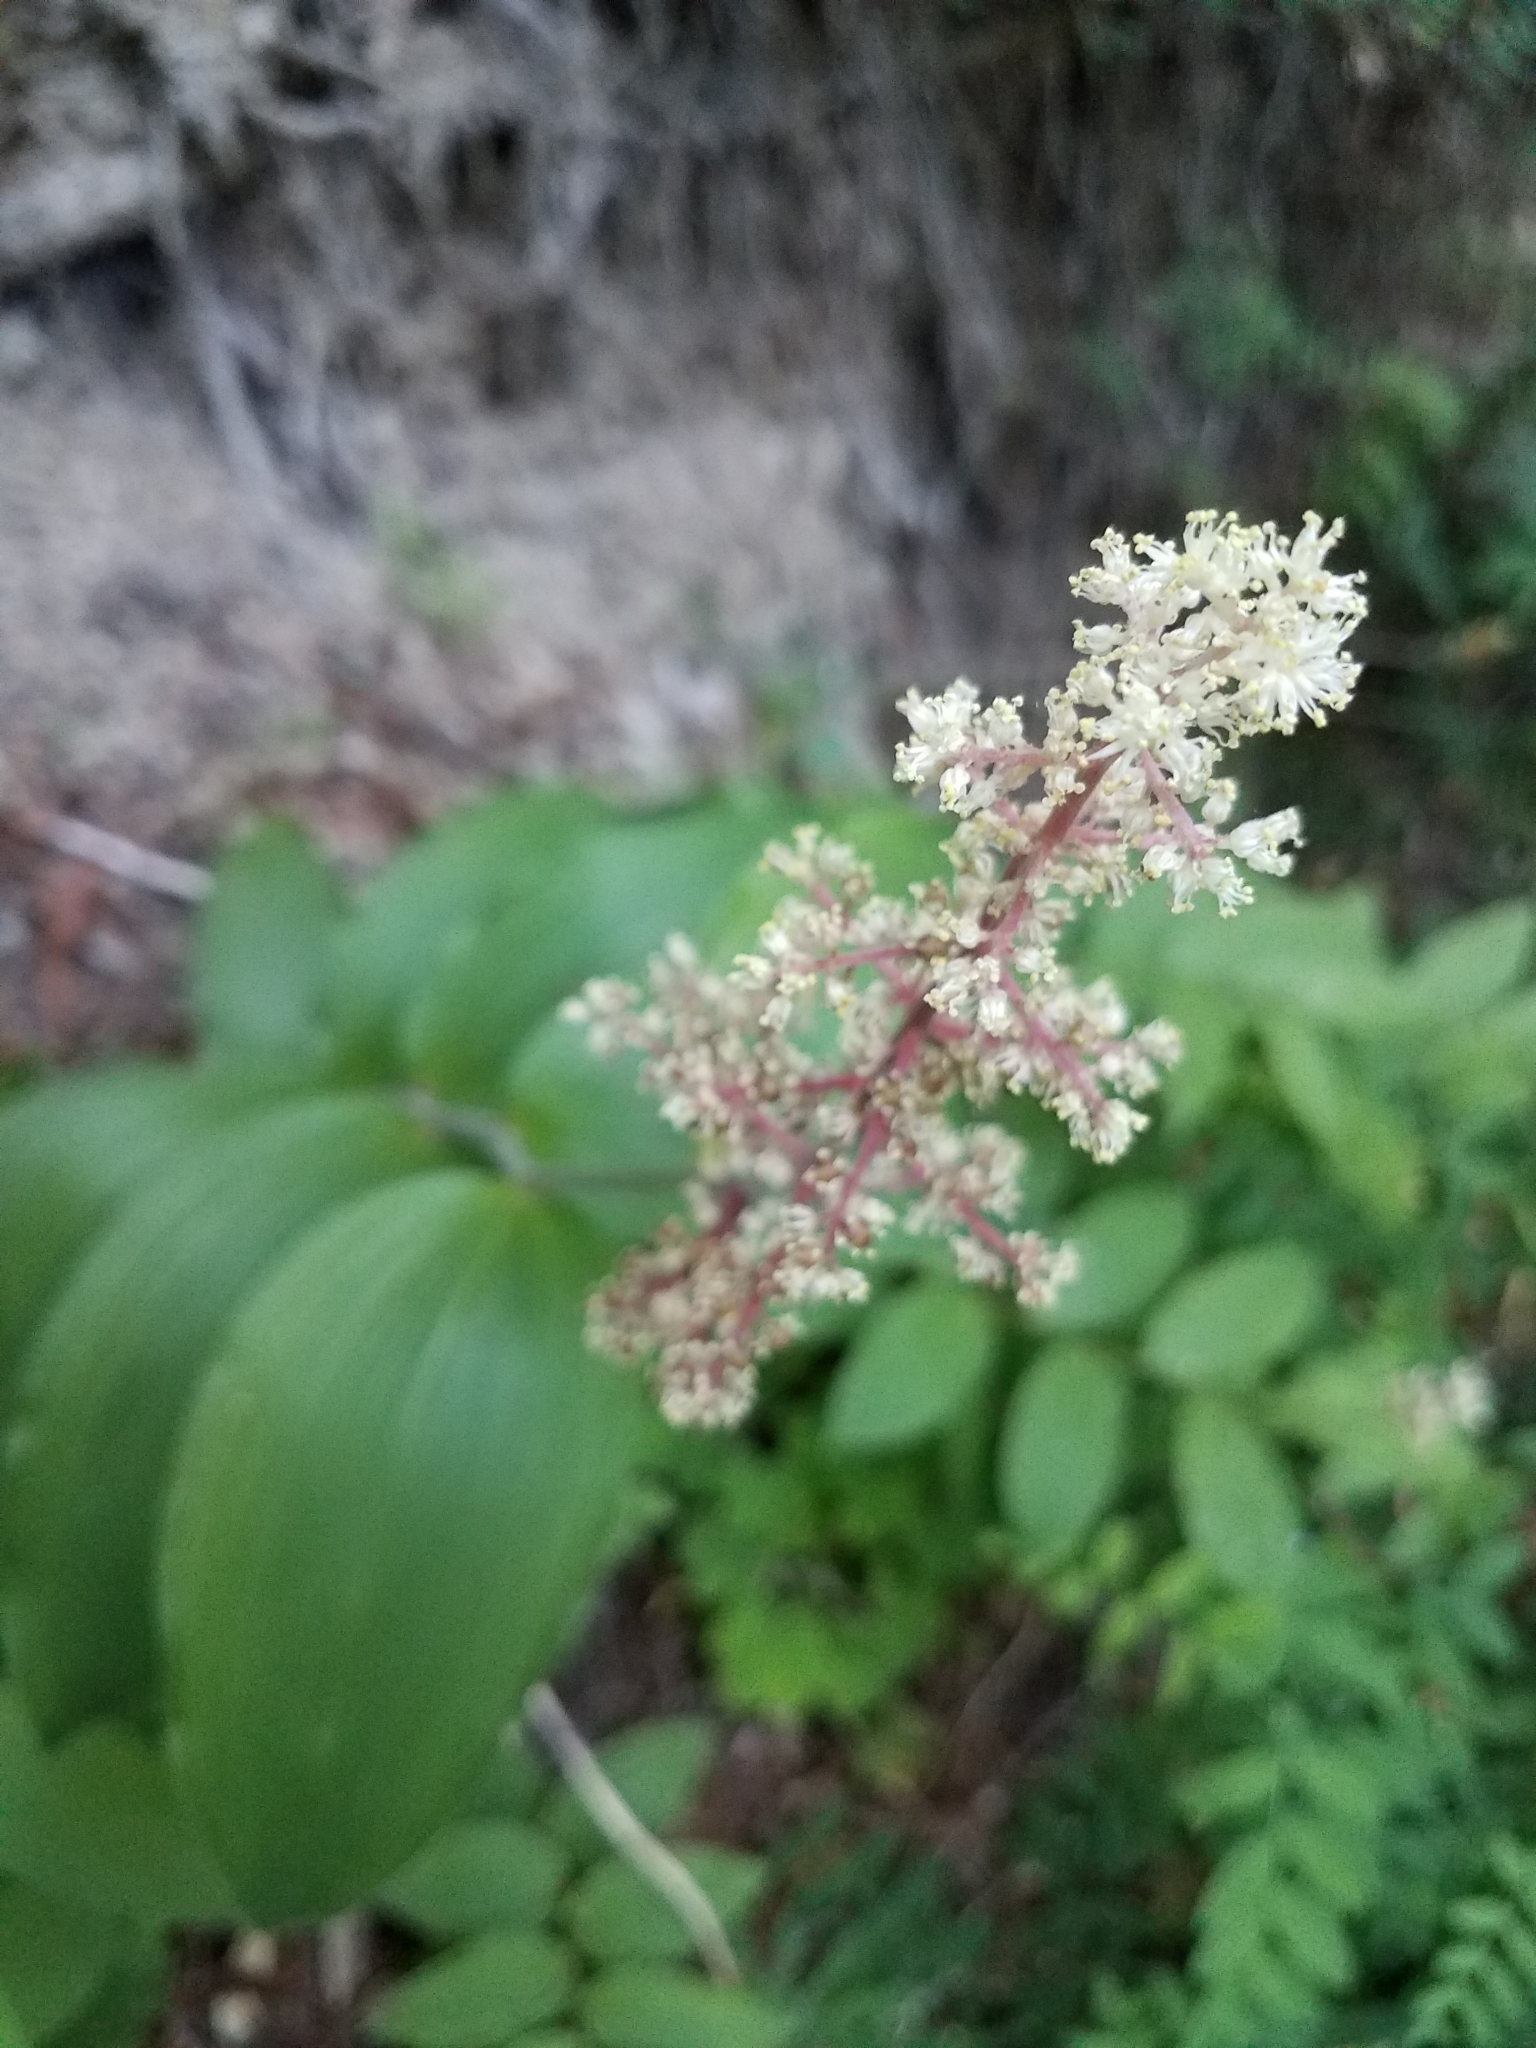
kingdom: Plantae
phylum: Tracheophyta
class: Liliopsida
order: Asparagales
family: Asparagaceae
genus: Maianthemum
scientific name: Maianthemum racemosum
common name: False spikenard
